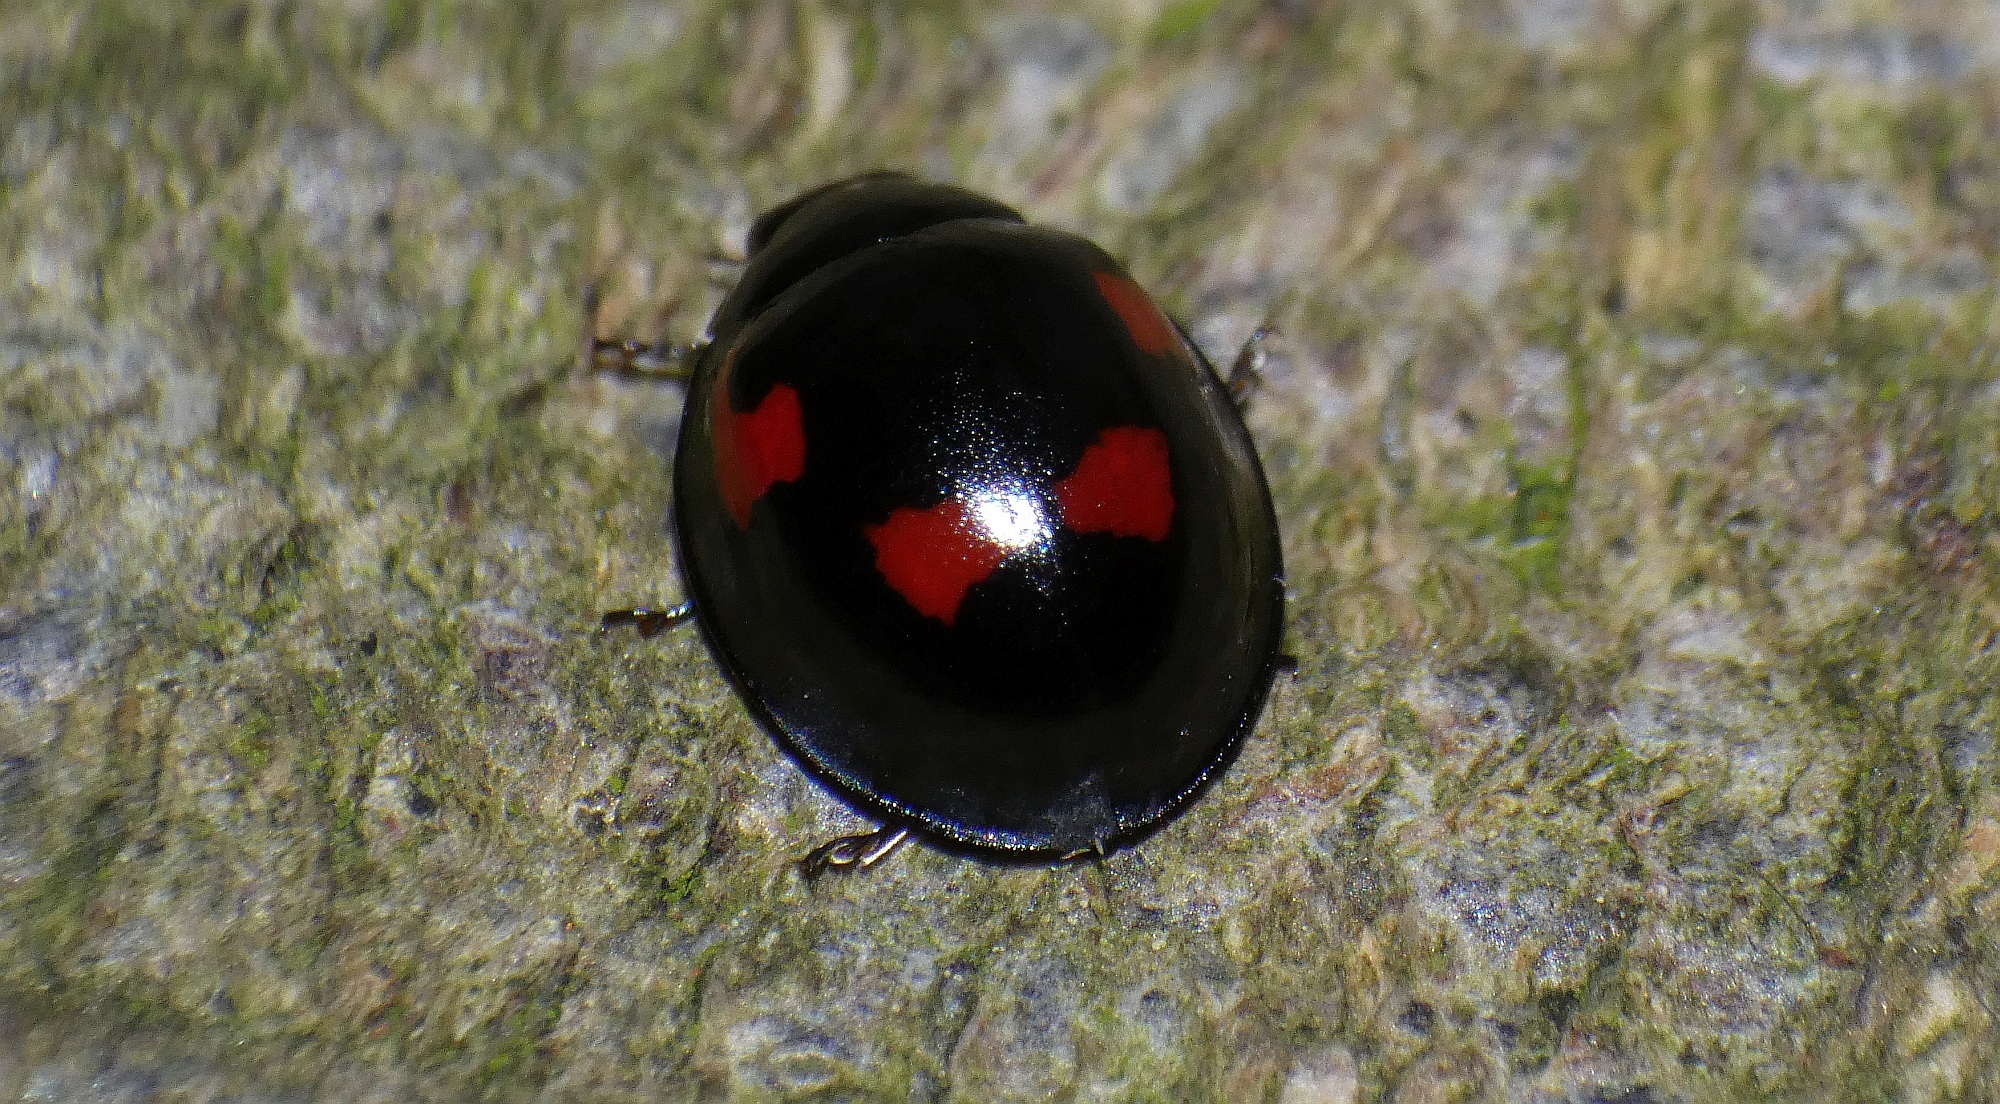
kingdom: Animalia
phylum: Arthropoda
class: Insecta
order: Coleoptera
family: Coccinellidae
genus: Brumus
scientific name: Brumus quadripustulatus
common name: Ladybird beetle
